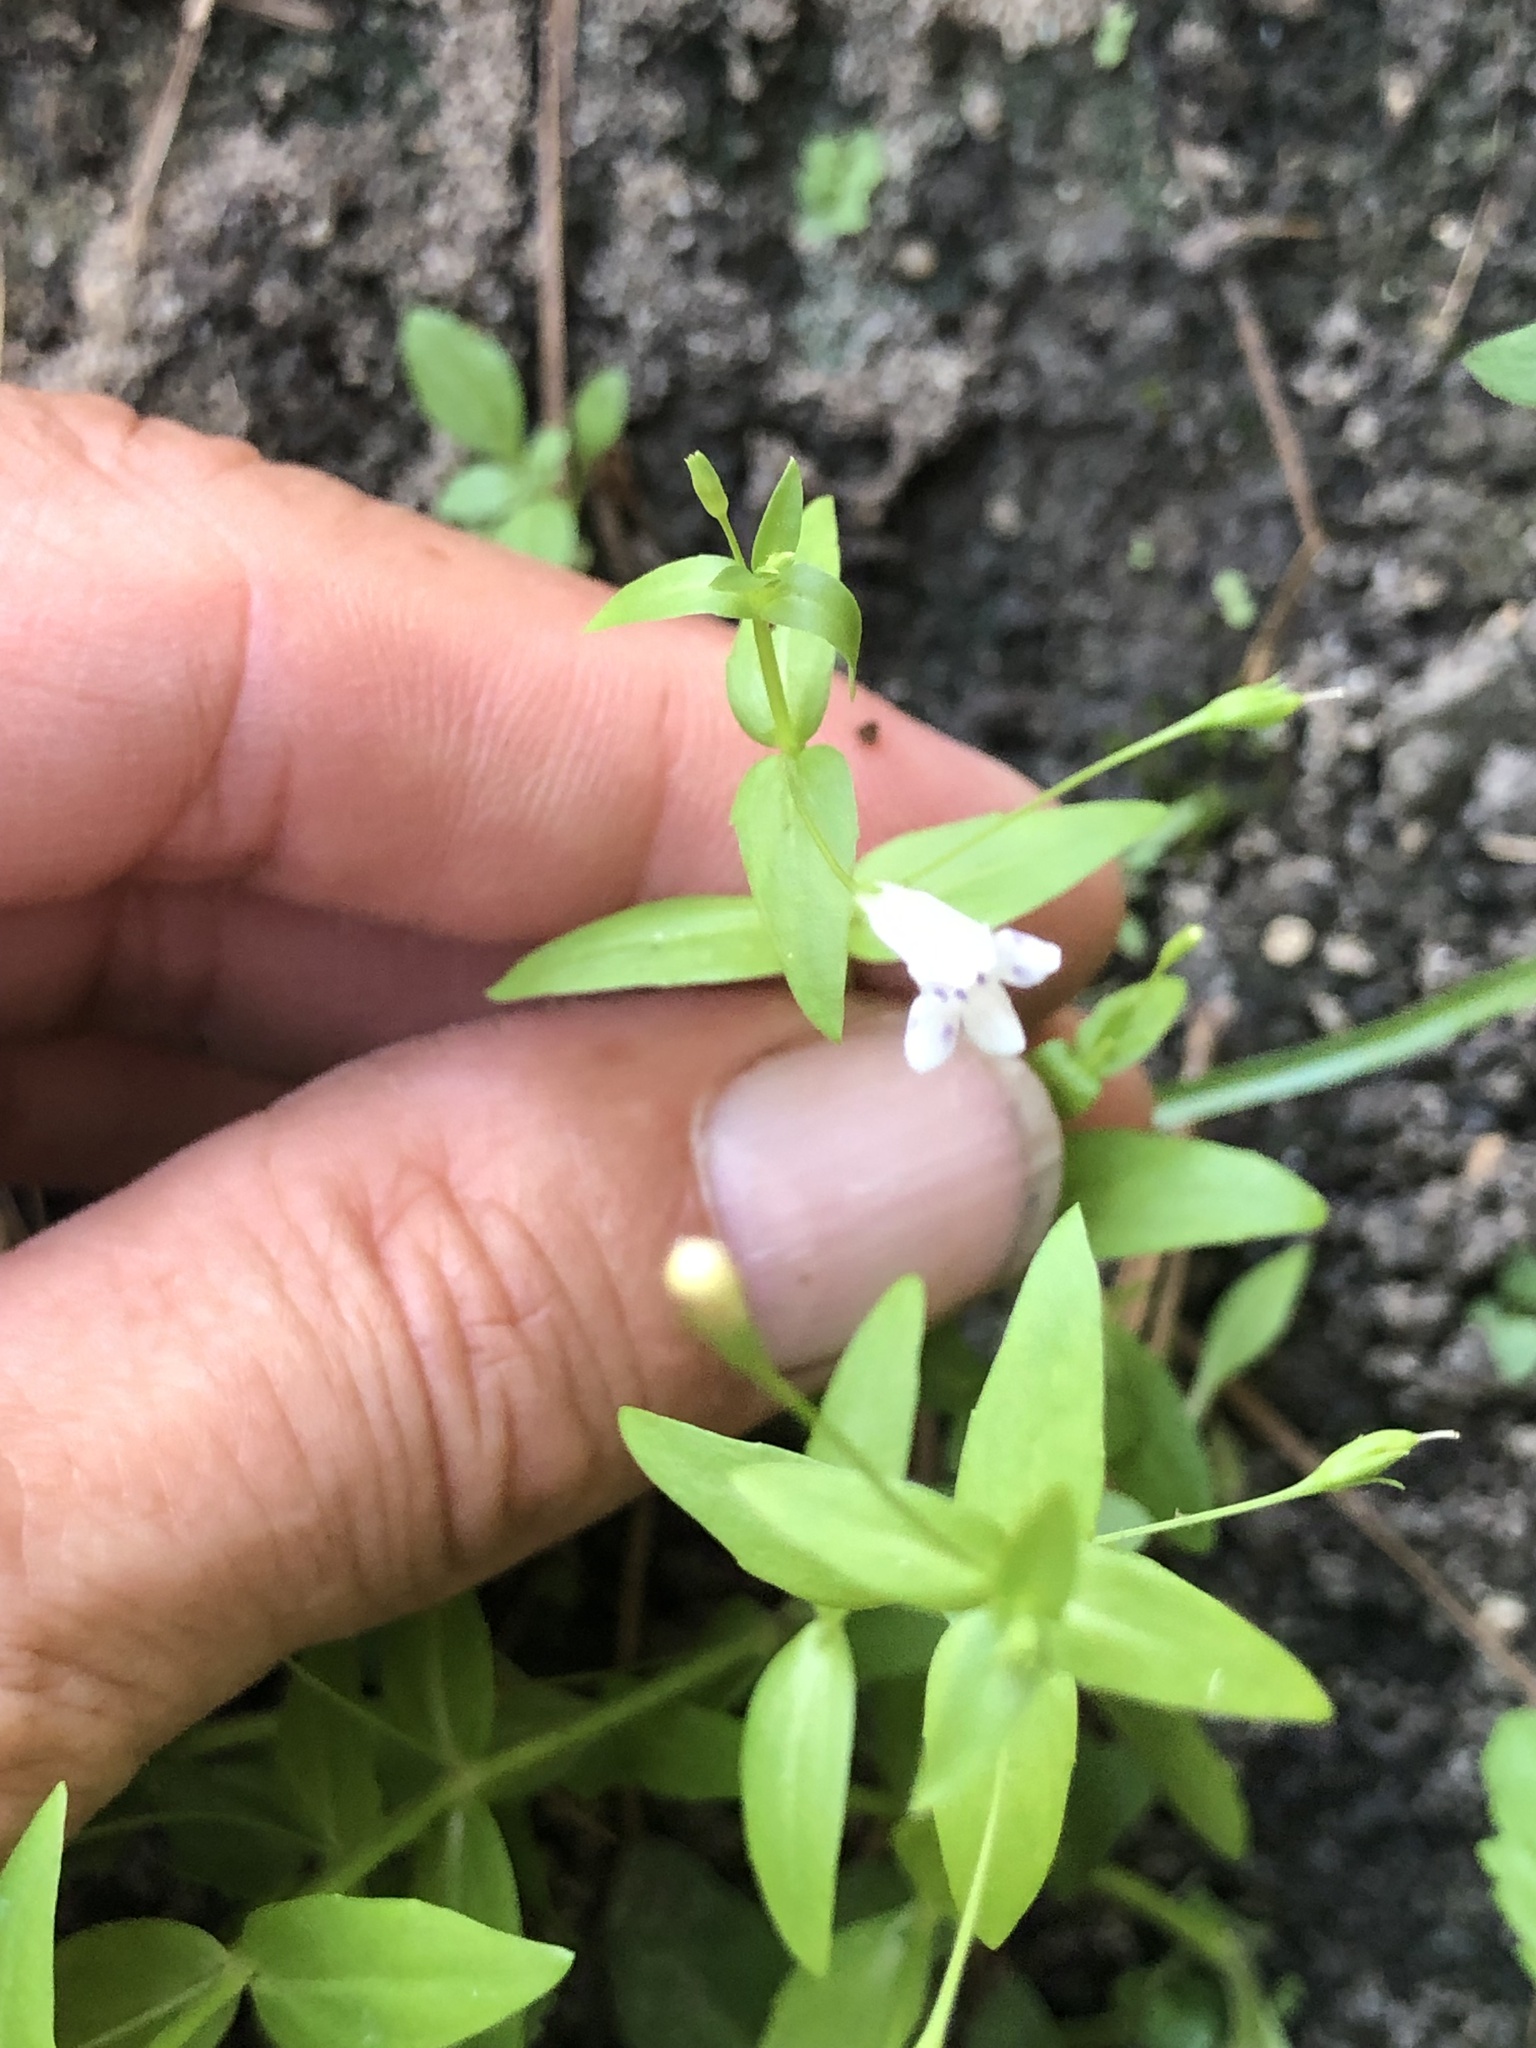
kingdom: Plantae
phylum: Tracheophyta
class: Magnoliopsida
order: Lamiales
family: Linderniaceae
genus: Lindernia
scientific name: Lindernia dubia
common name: Annual false pimpernel
